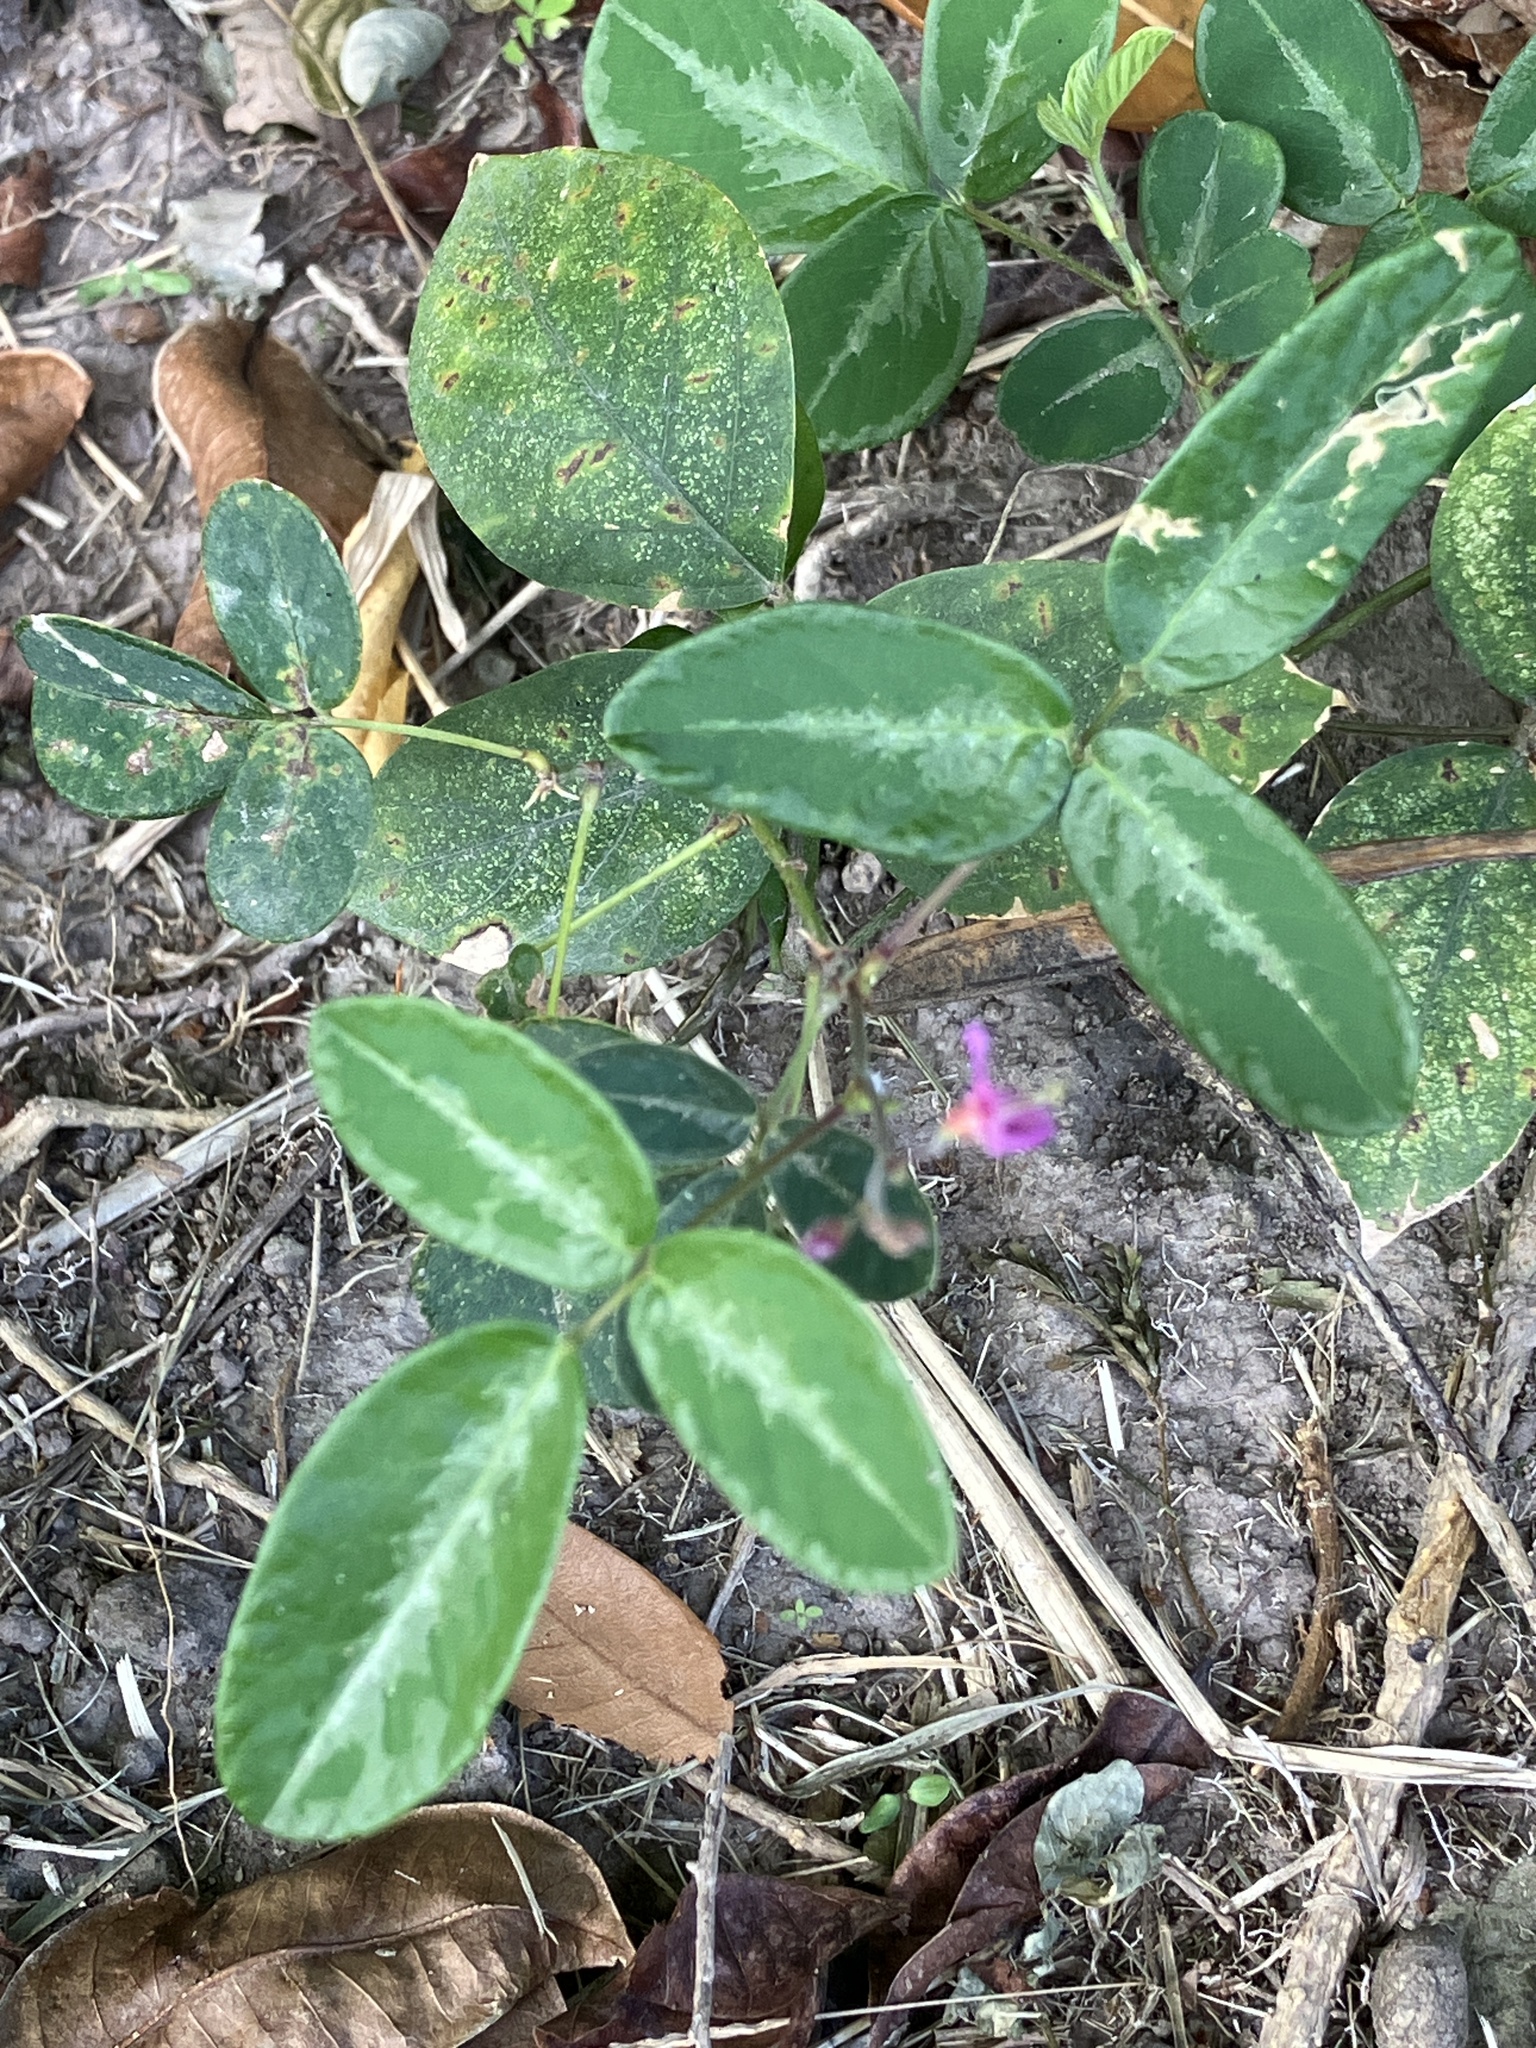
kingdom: Plantae
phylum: Tracheophyta
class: Magnoliopsida
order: Fabales
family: Fabaceae
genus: Desmodium
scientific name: Desmodium incanum
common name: Tickclover
